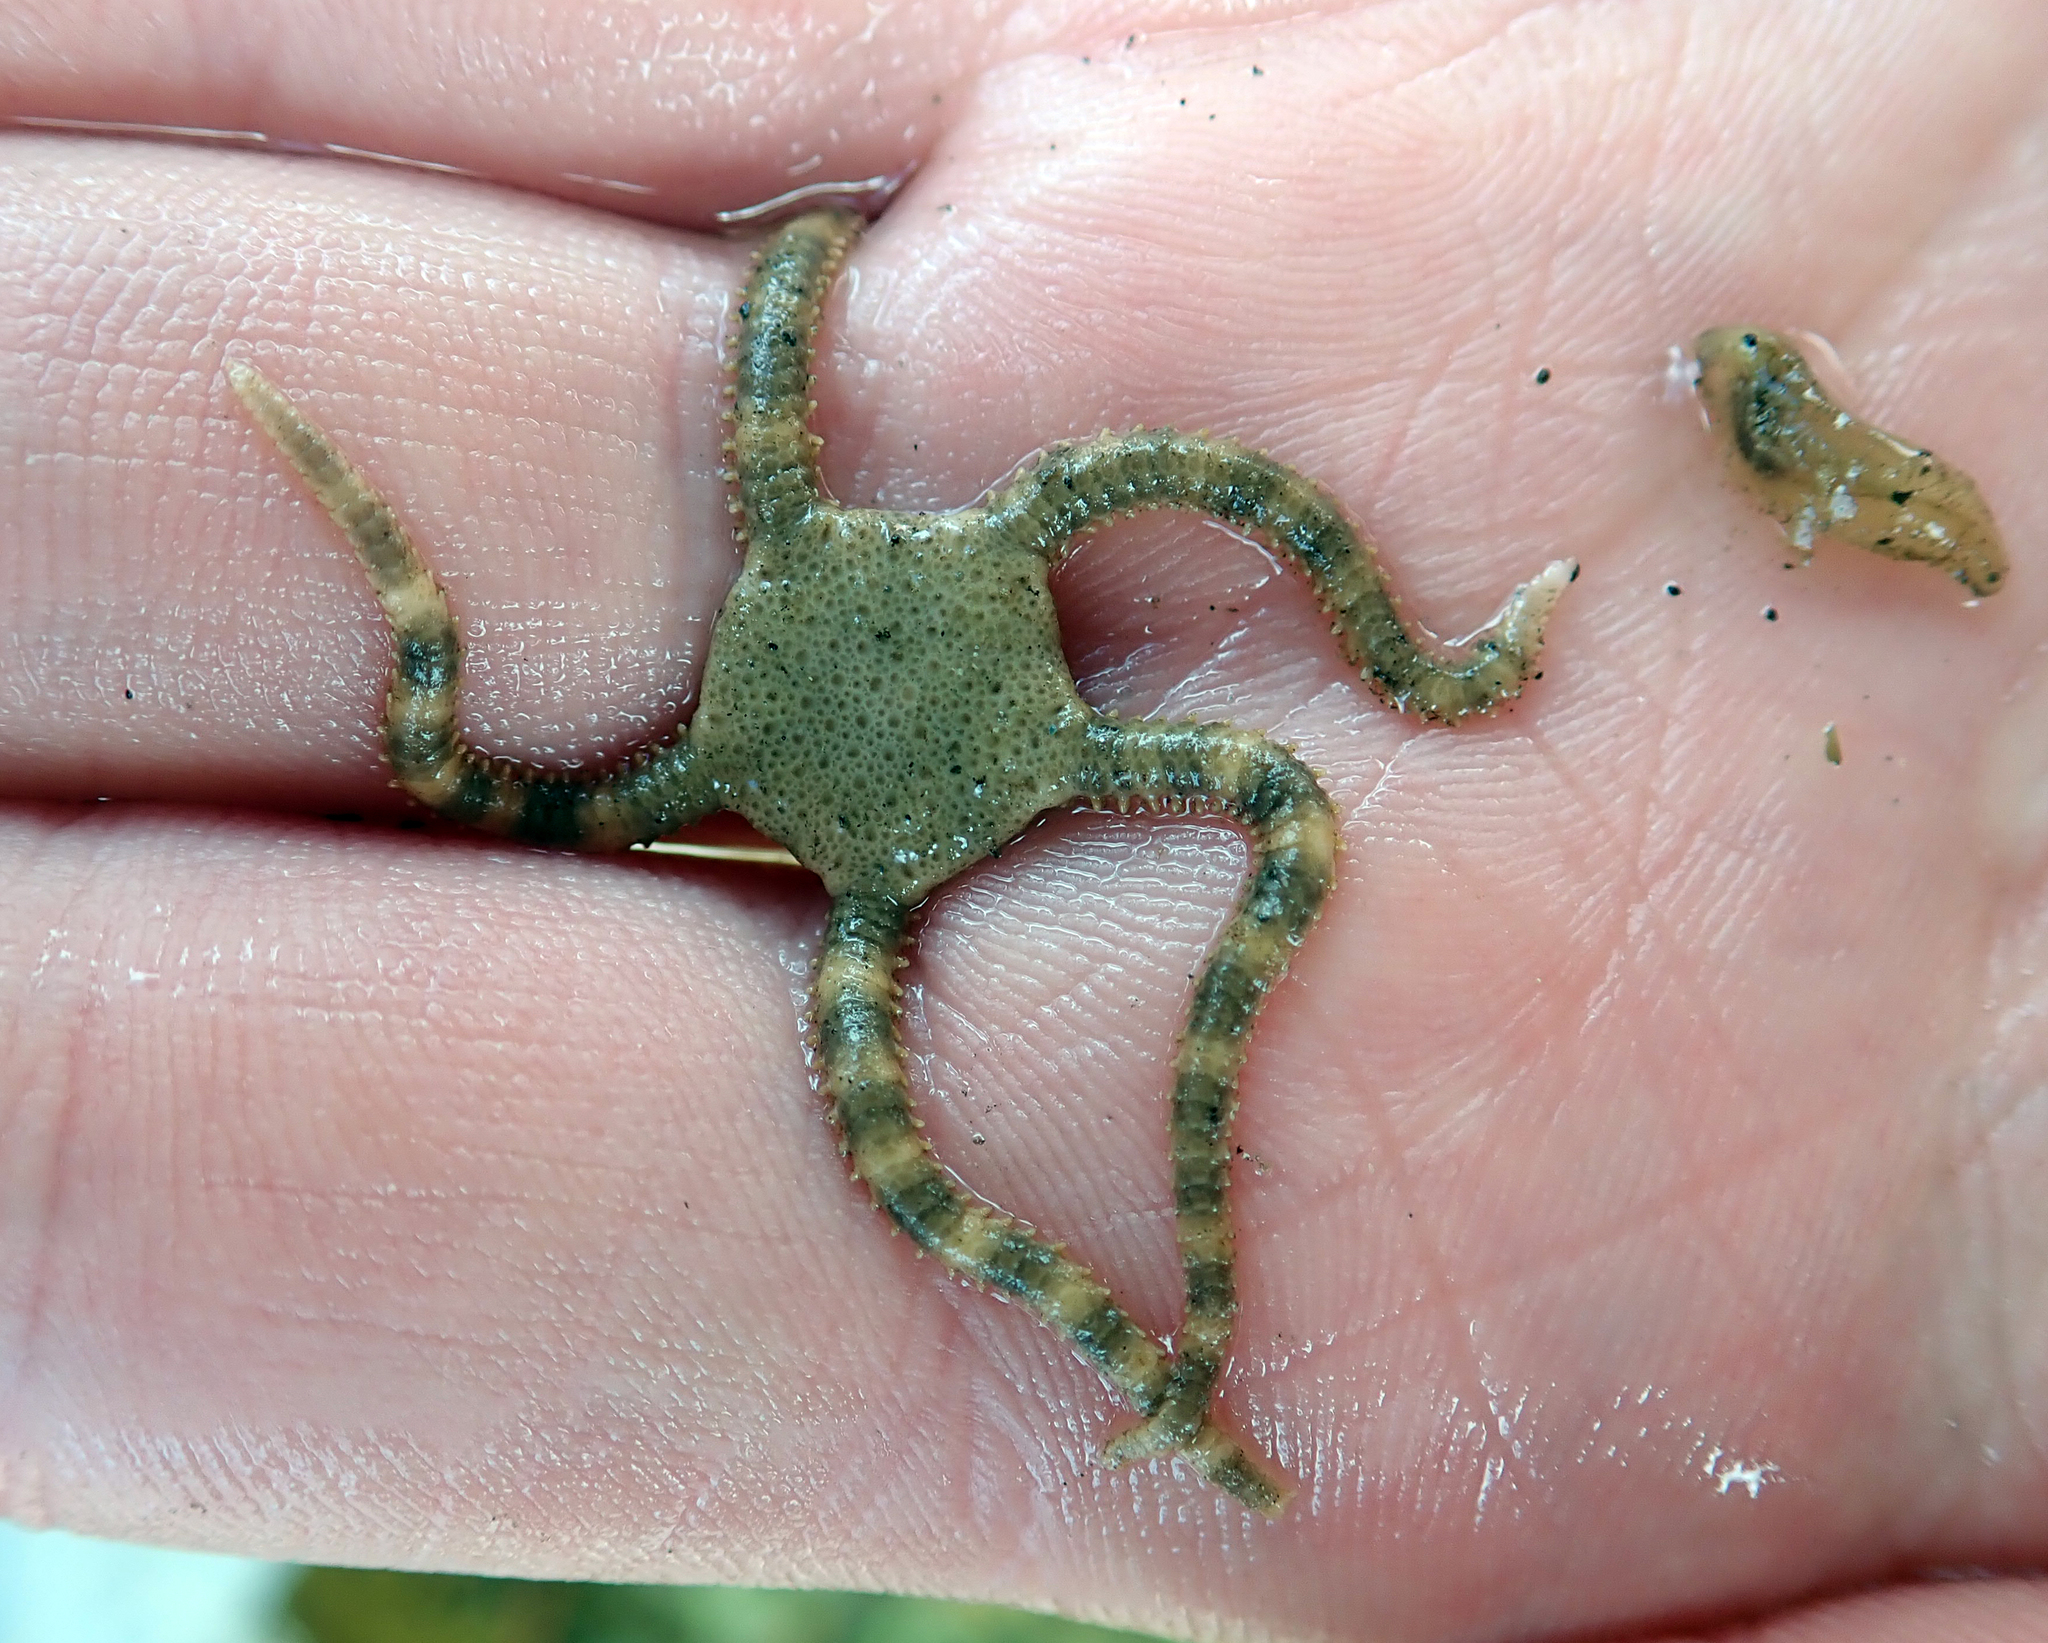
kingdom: Animalia
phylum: Echinodermata
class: Ophiuroidea
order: Amphilepidida
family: Hemieuryalidae
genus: Ophioplocus
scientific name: Ophioplocus huttoni
